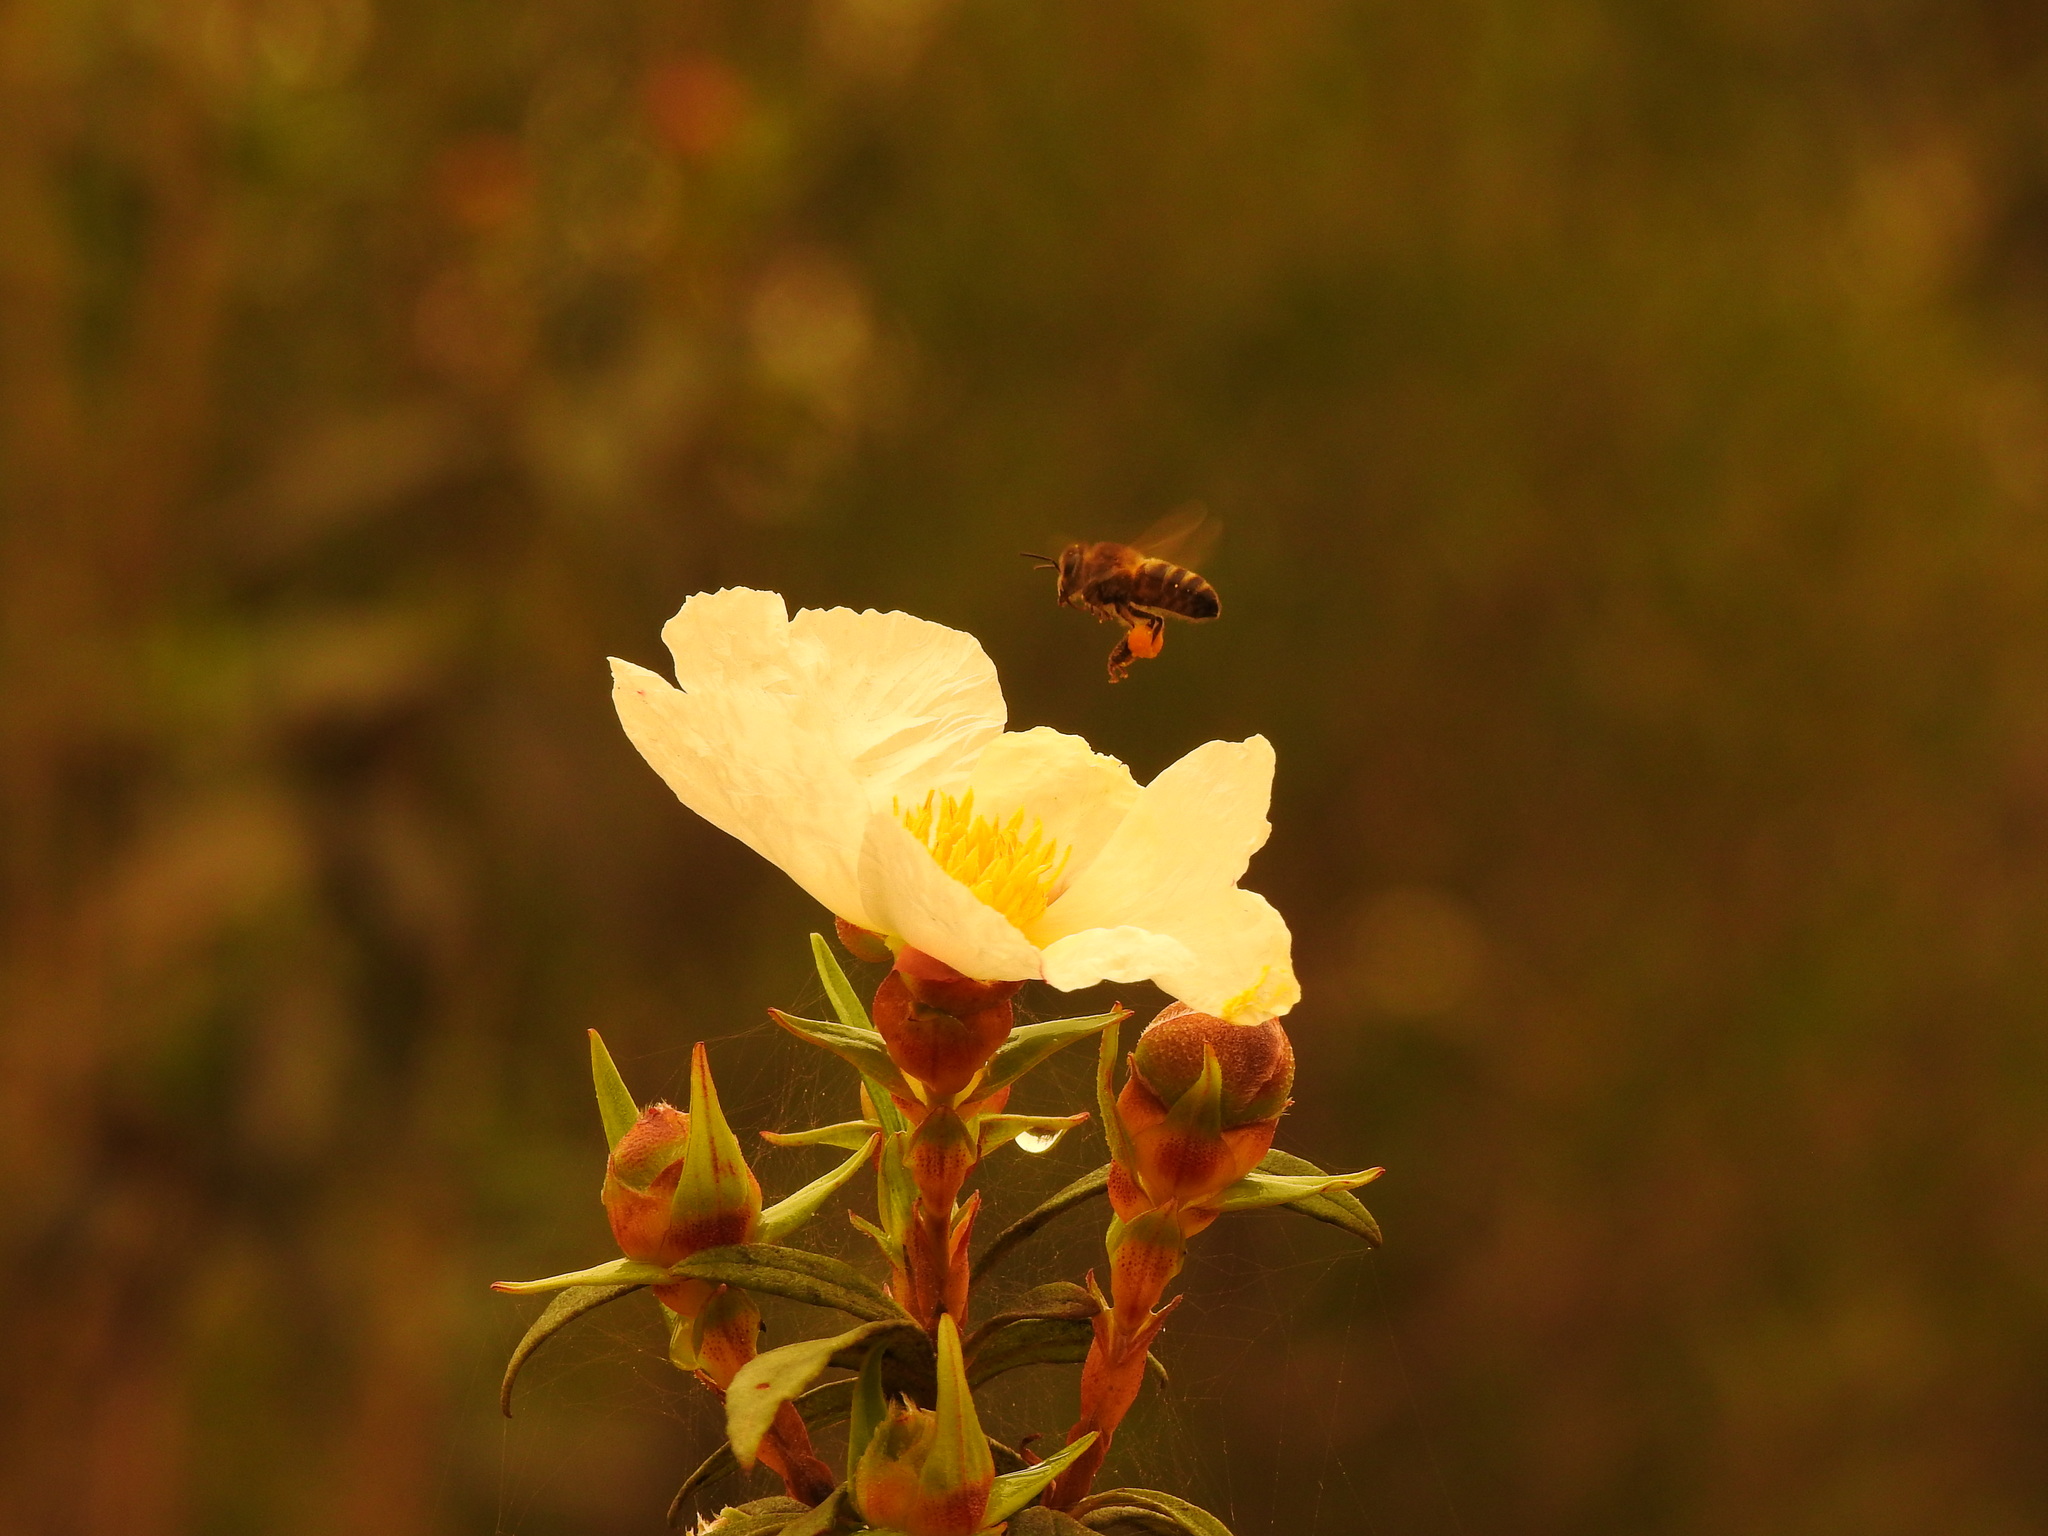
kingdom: Animalia
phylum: Arthropoda
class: Insecta
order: Hymenoptera
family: Apidae
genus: Apis
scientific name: Apis mellifera
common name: Honey bee
